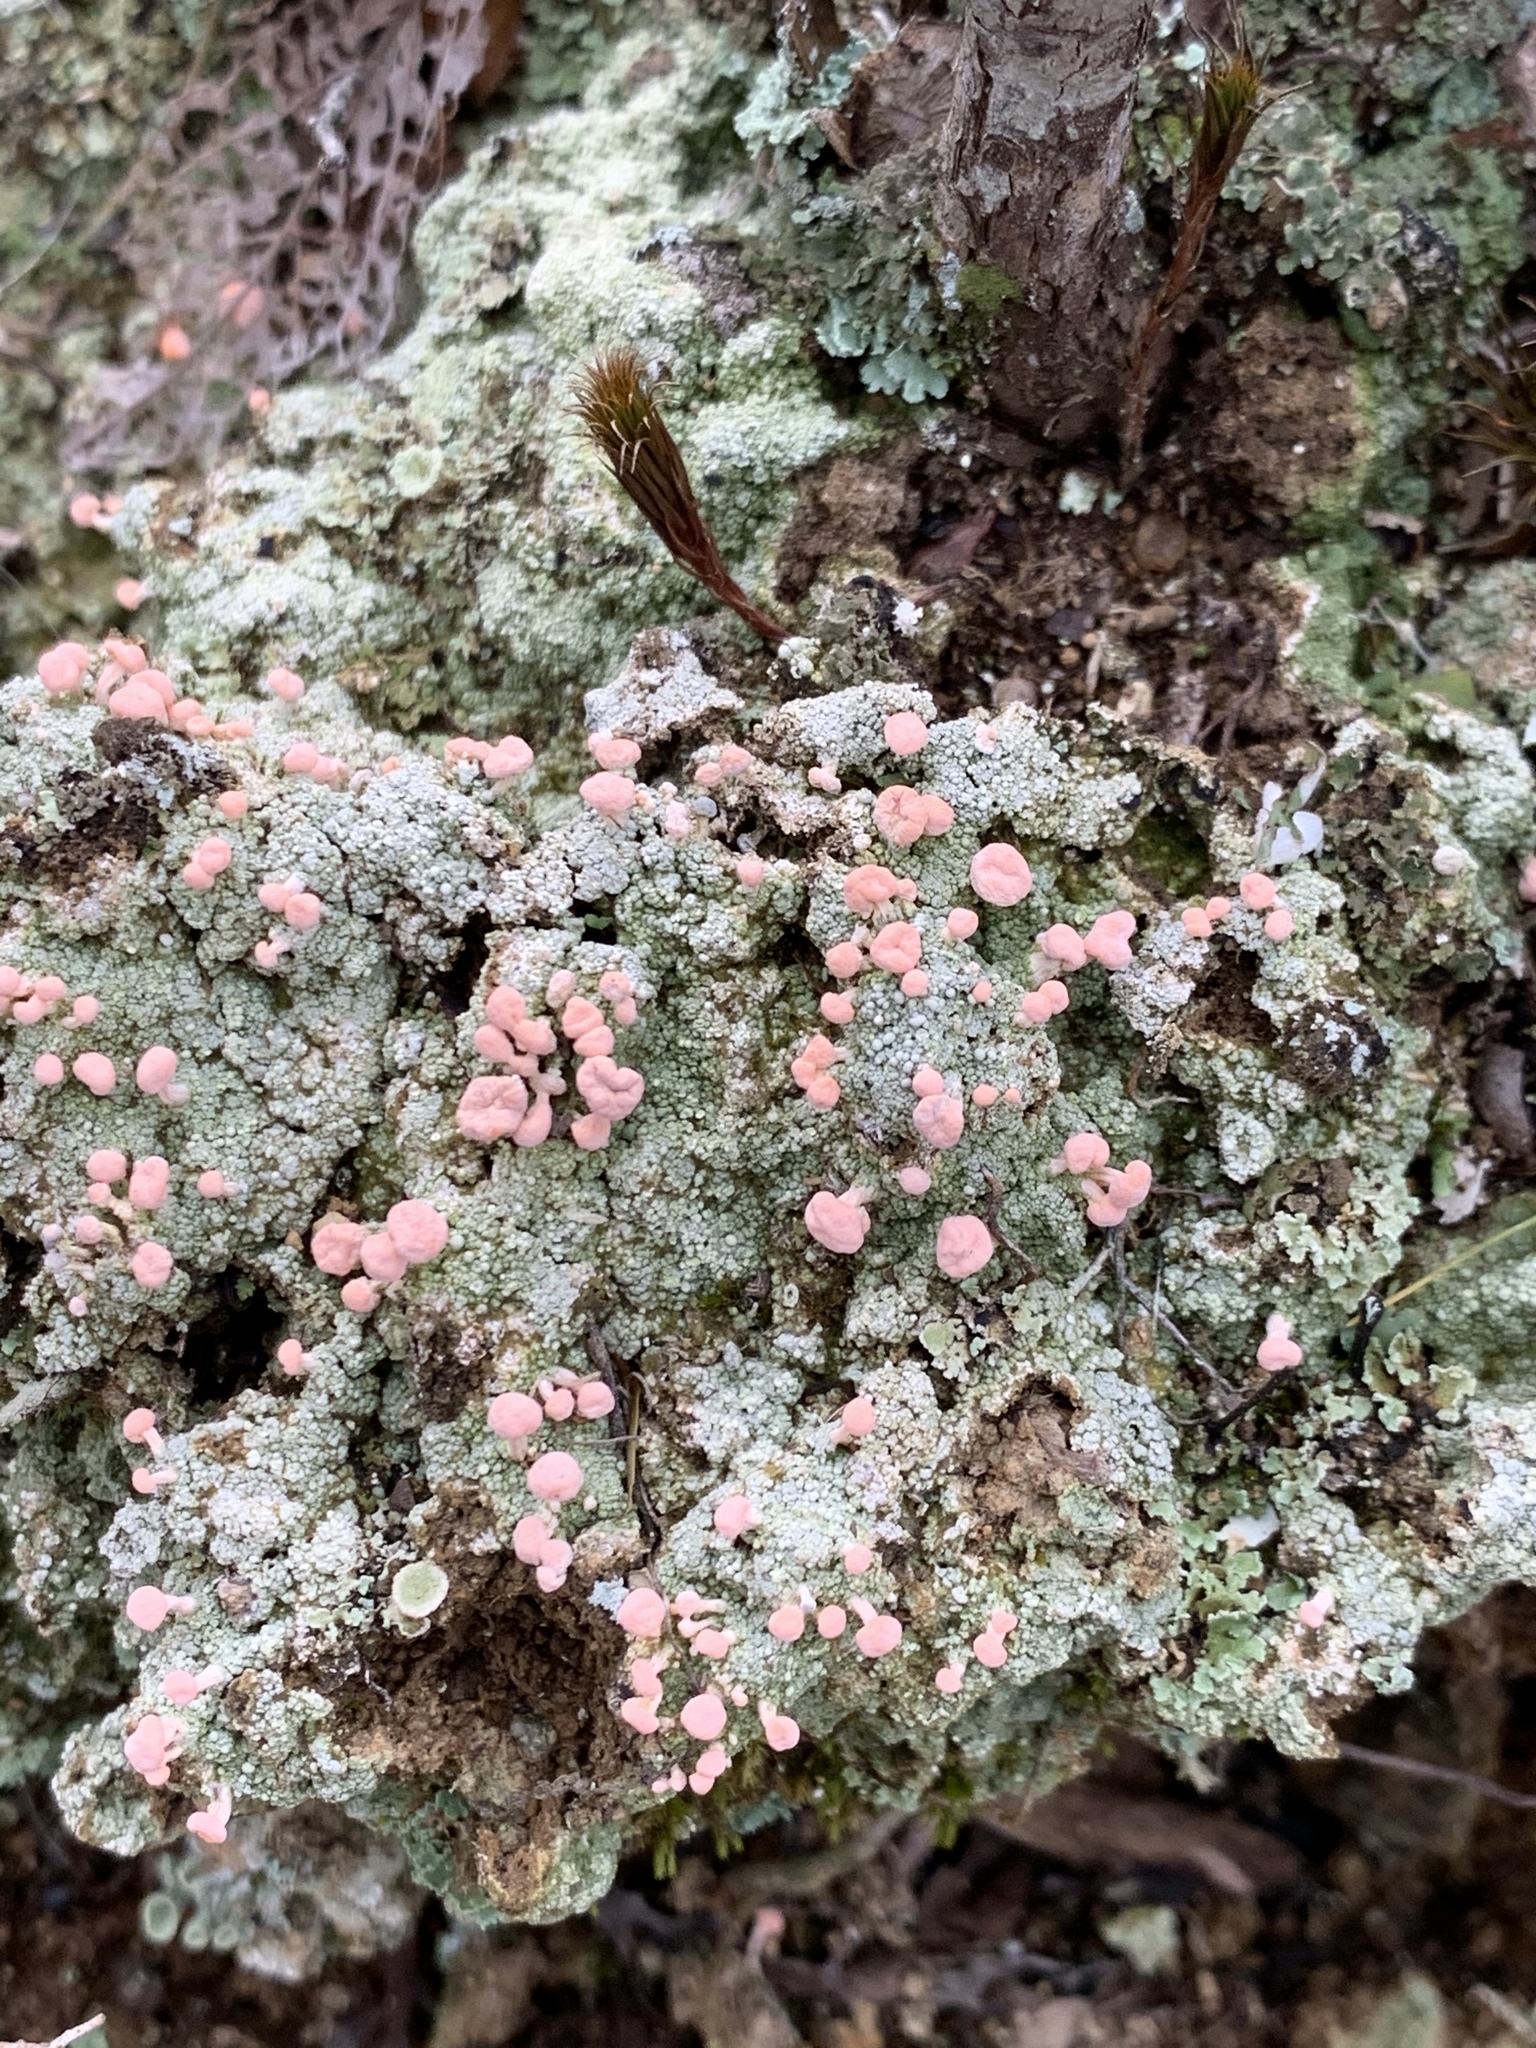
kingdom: Fungi
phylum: Ascomycota
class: Lecanoromycetes
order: Pertusariales
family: Icmadophilaceae
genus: Dibaeis
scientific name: Dibaeis baeomyces
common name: Pink earth lichen
